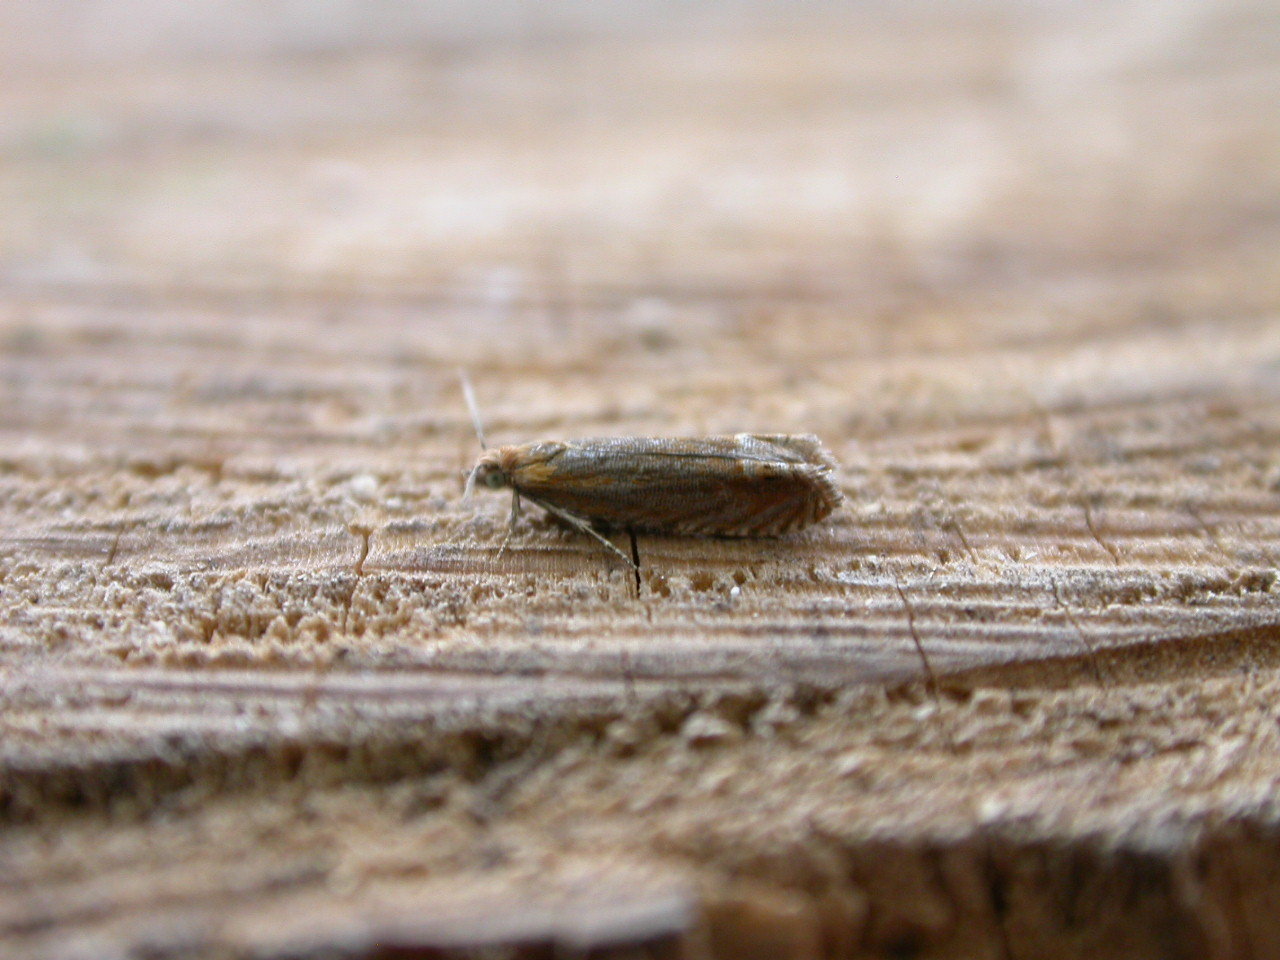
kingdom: Animalia
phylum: Arthropoda
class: Insecta
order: Lepidoptera
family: Tortricidae
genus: Lathronympha
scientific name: Lathronympha strigana
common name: Red piercer
